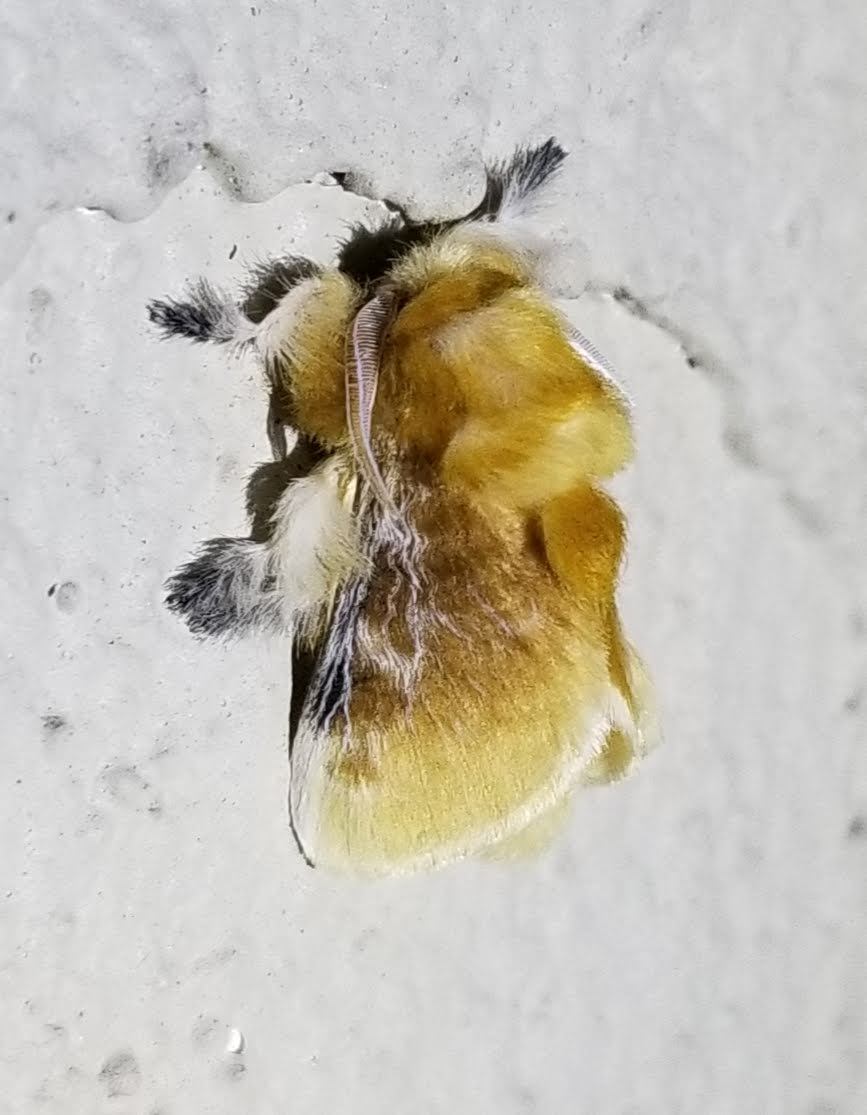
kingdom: Animalia
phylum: Arthropoda
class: Insecta
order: Lepidoptera
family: Megalopygidae
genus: Megalopyge
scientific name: Megalopyge opercularis
